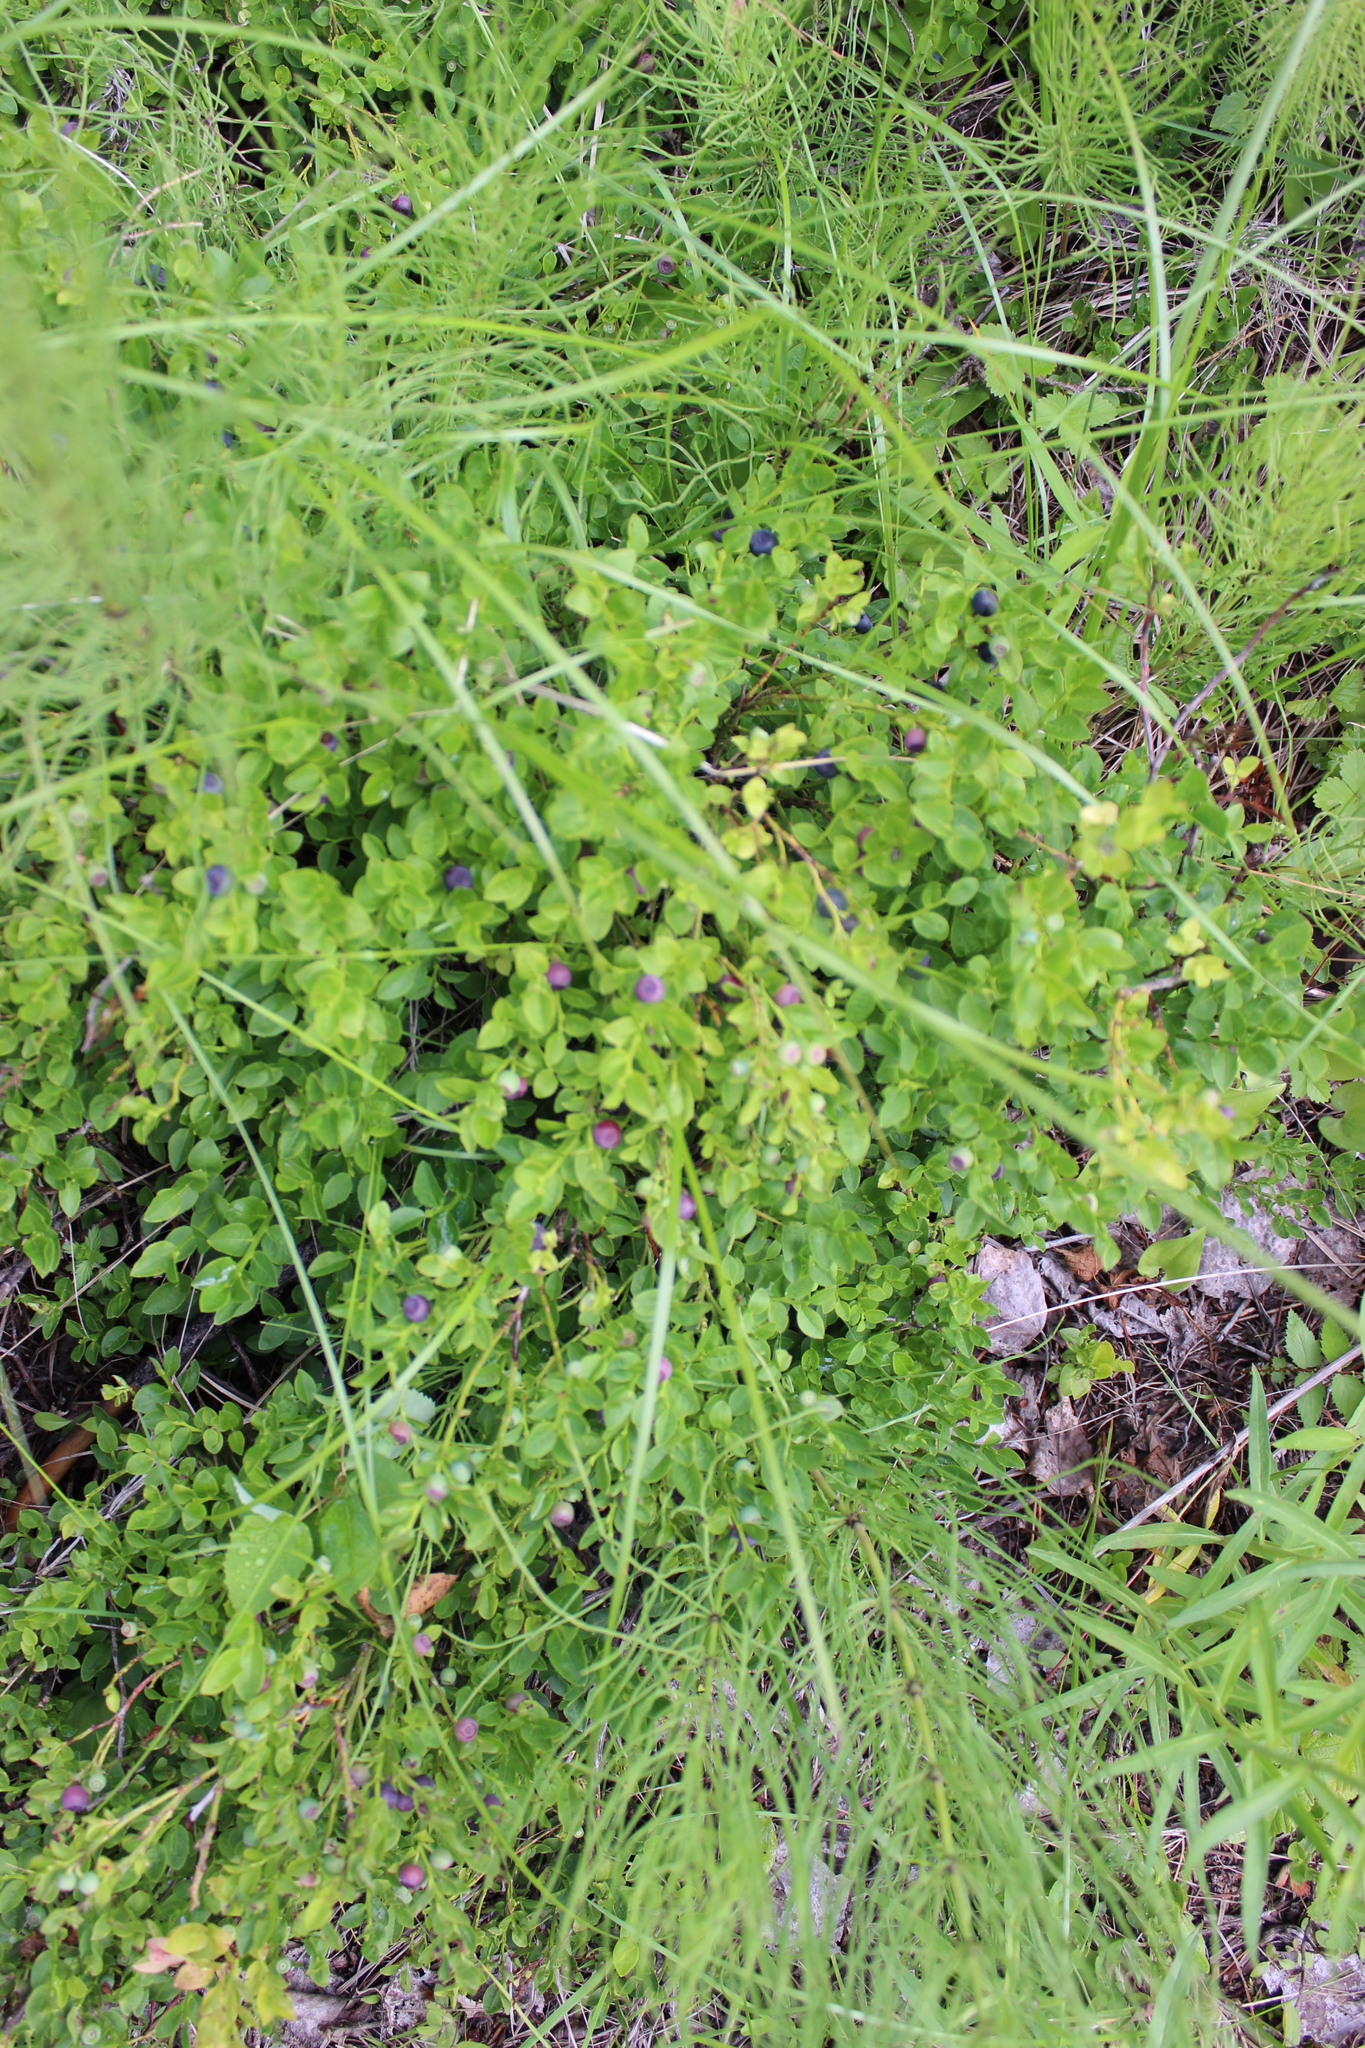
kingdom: Plantae
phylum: Tracheophyta
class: Magnoliopsida
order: Ericales
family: Ericaceae
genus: Vaccinium
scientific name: Vaccinium myrtillus
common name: Bilberry
